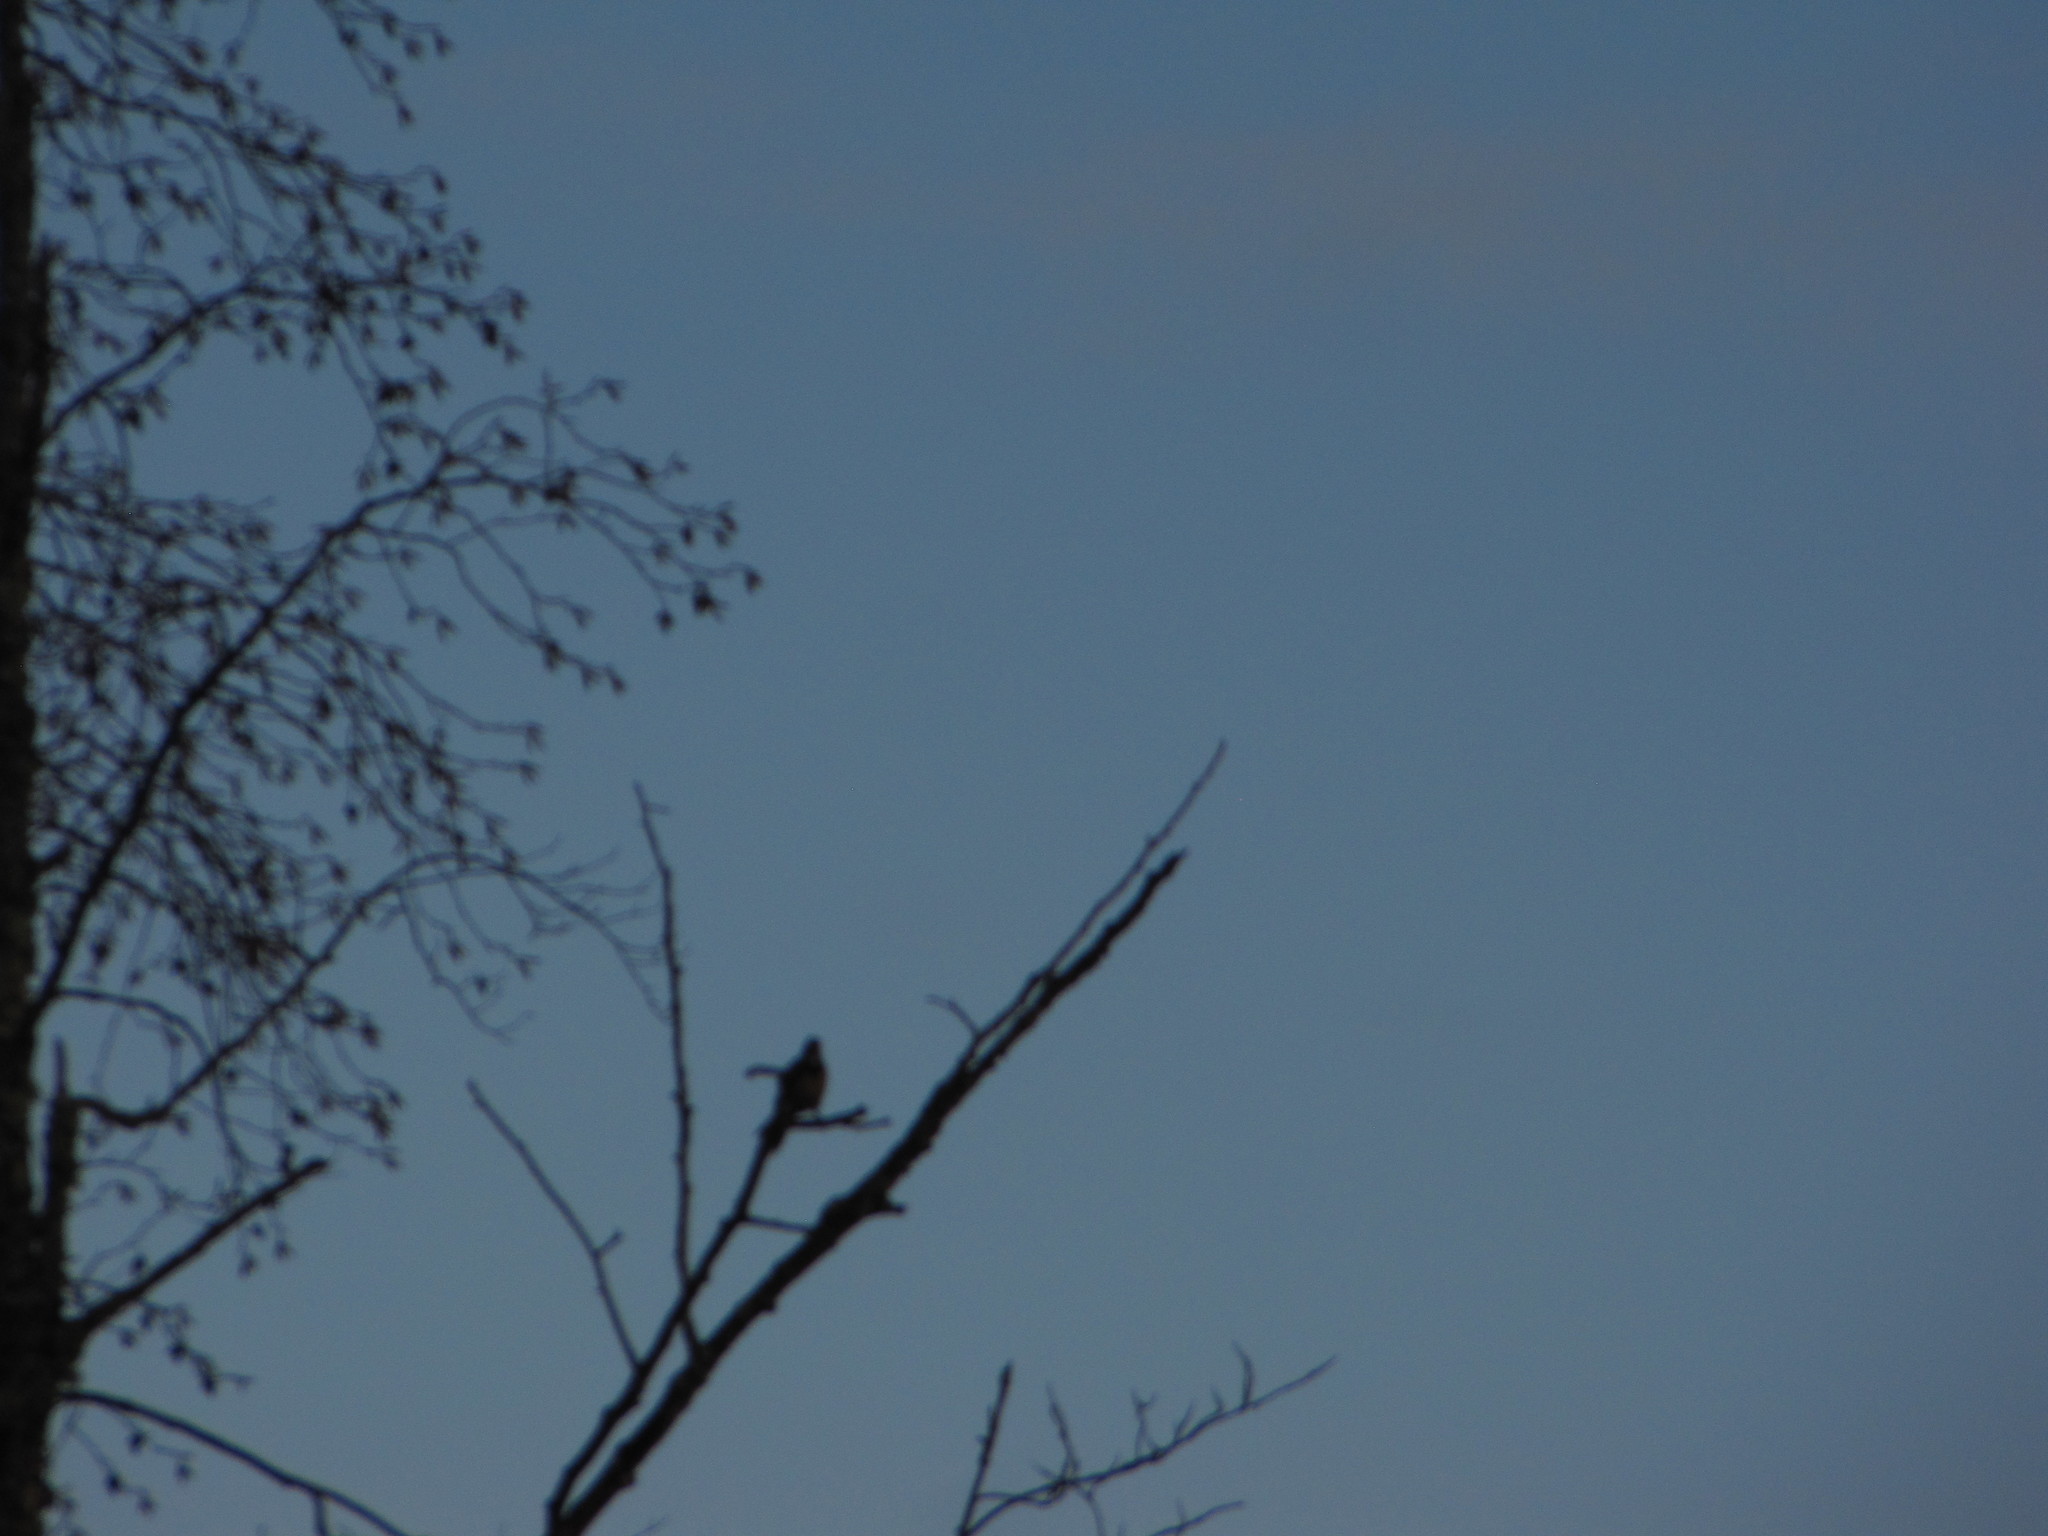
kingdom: Animalia
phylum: Chordata
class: Aves
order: Passeriformes
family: Corvidae
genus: Cyanocitta
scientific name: Cyanocitta stelleri
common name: Steller's jay
